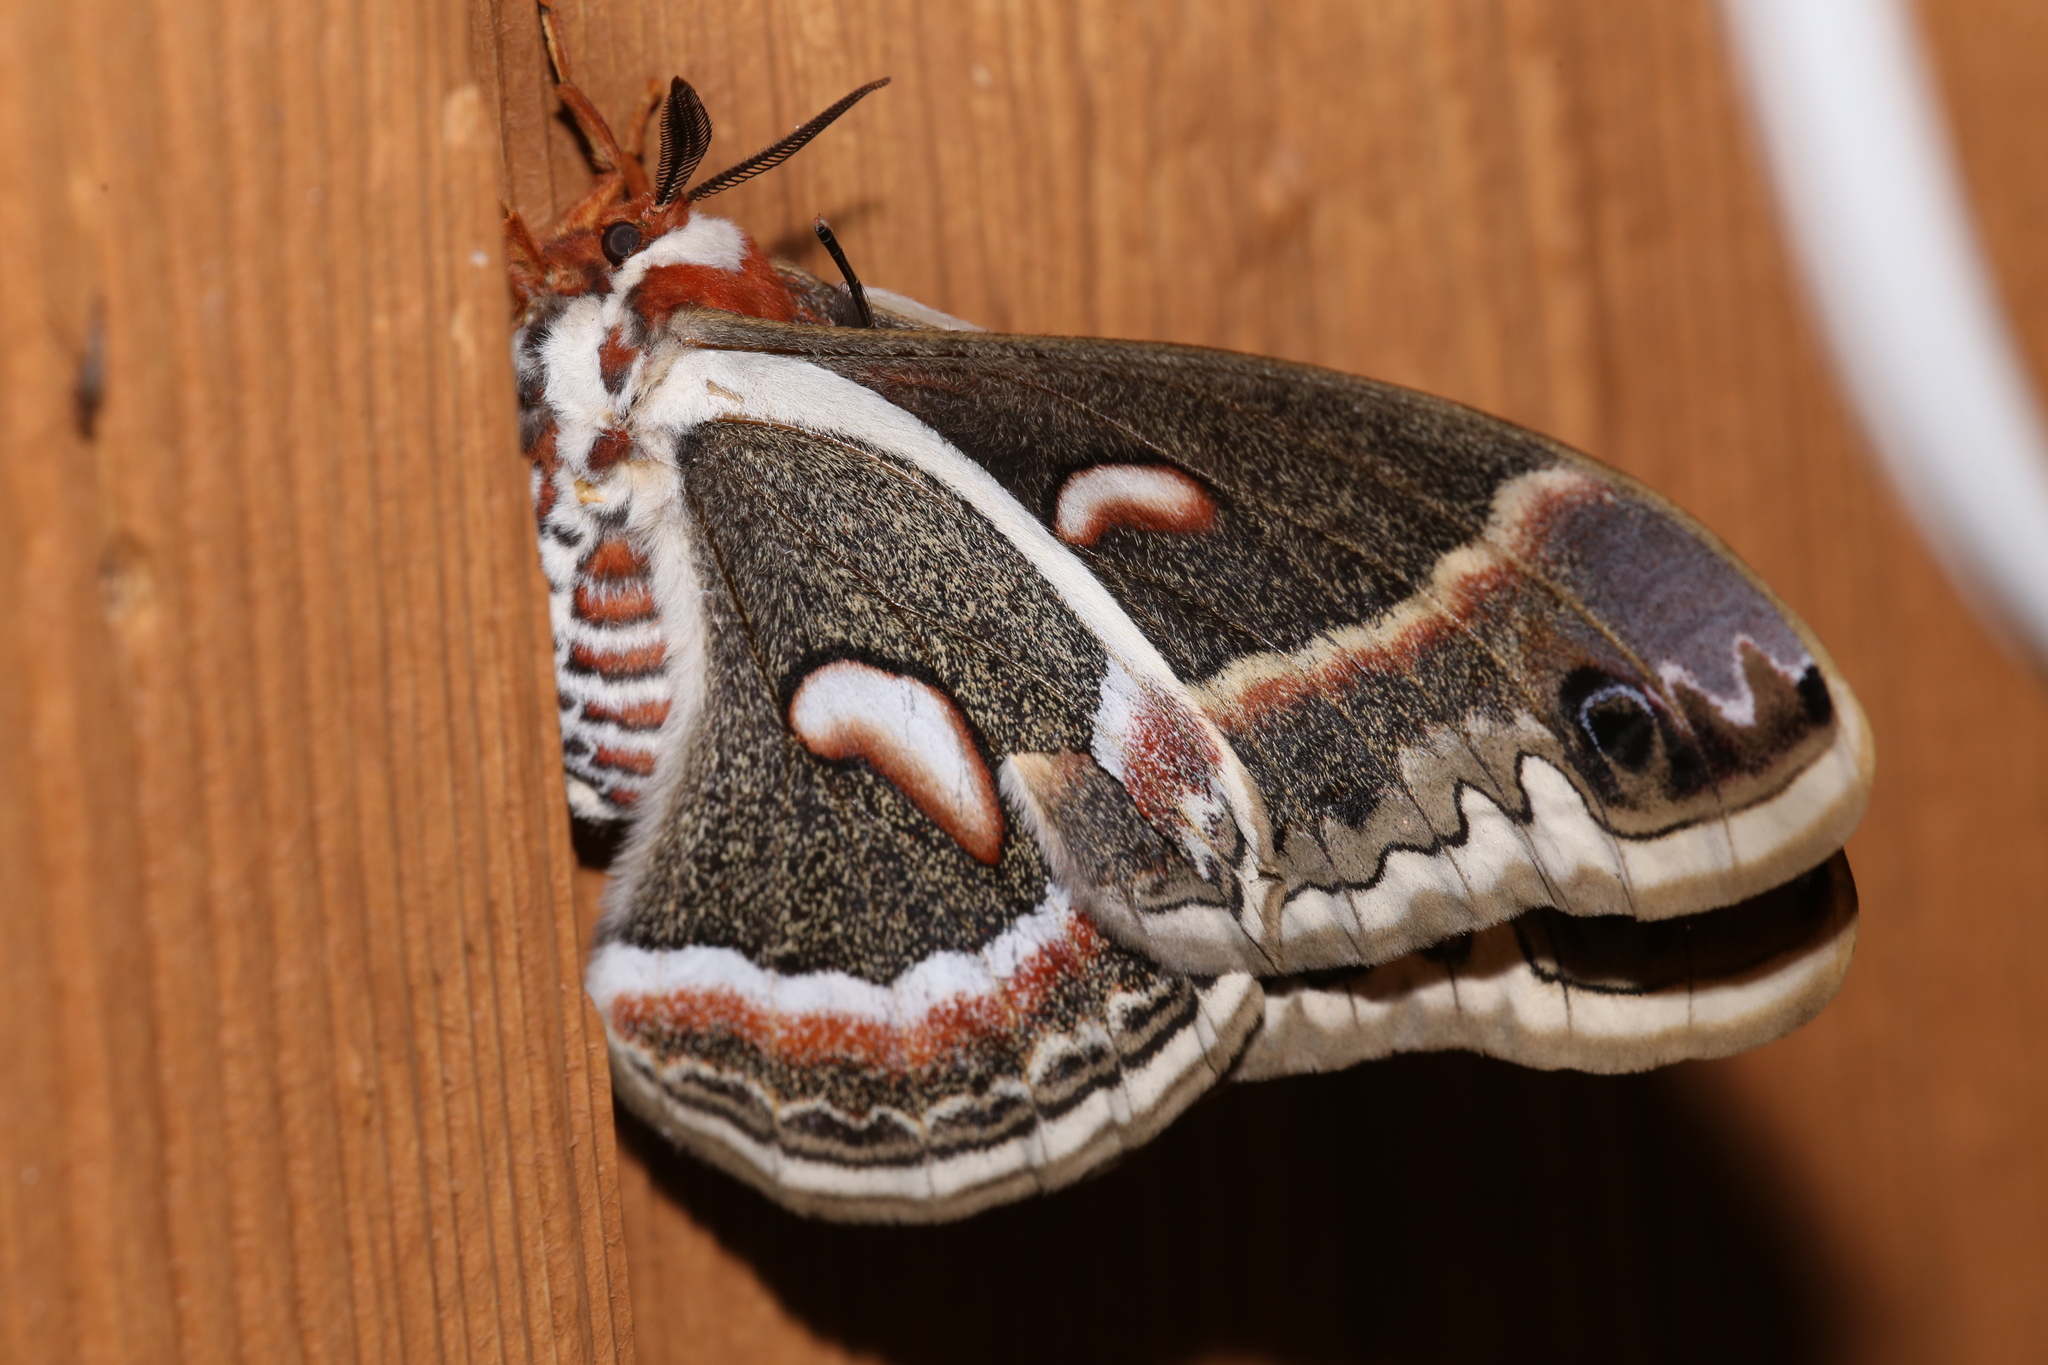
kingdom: Animalia
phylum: Arthropoda
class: Insecta
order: Lepidoptera
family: Saturniidae
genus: Hyalophora
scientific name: Hyalophora cecropia
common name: Cecropia silkmoth
